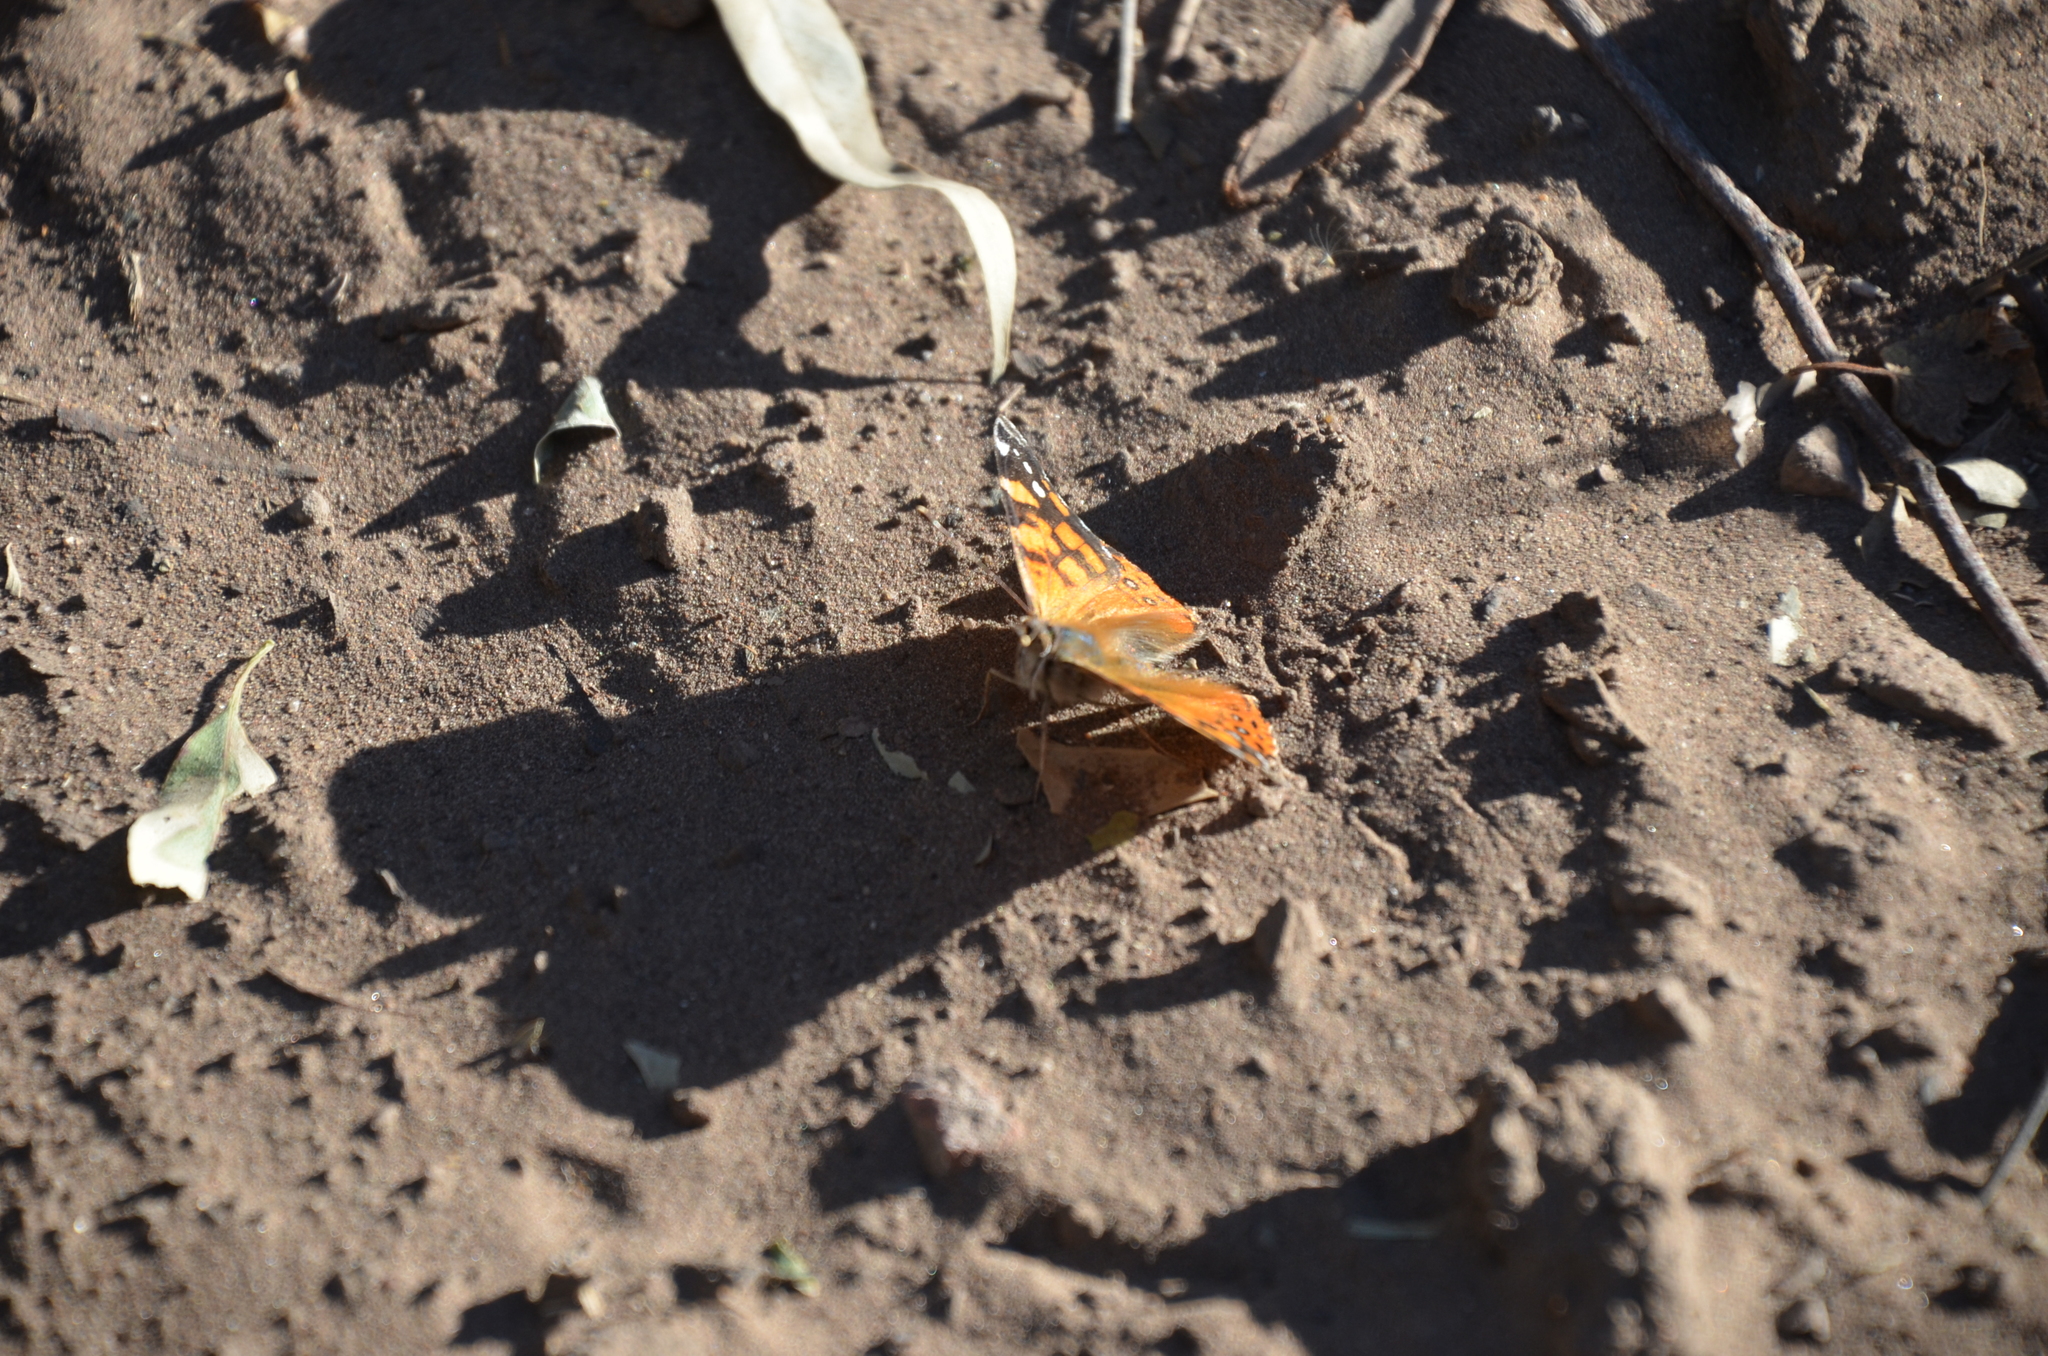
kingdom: Animalia
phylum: Arthropoda
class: Insecta
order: Lepidoptera
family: Nymphalidae
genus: Vanessa
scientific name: Vanessa carye
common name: Subtropical lady
